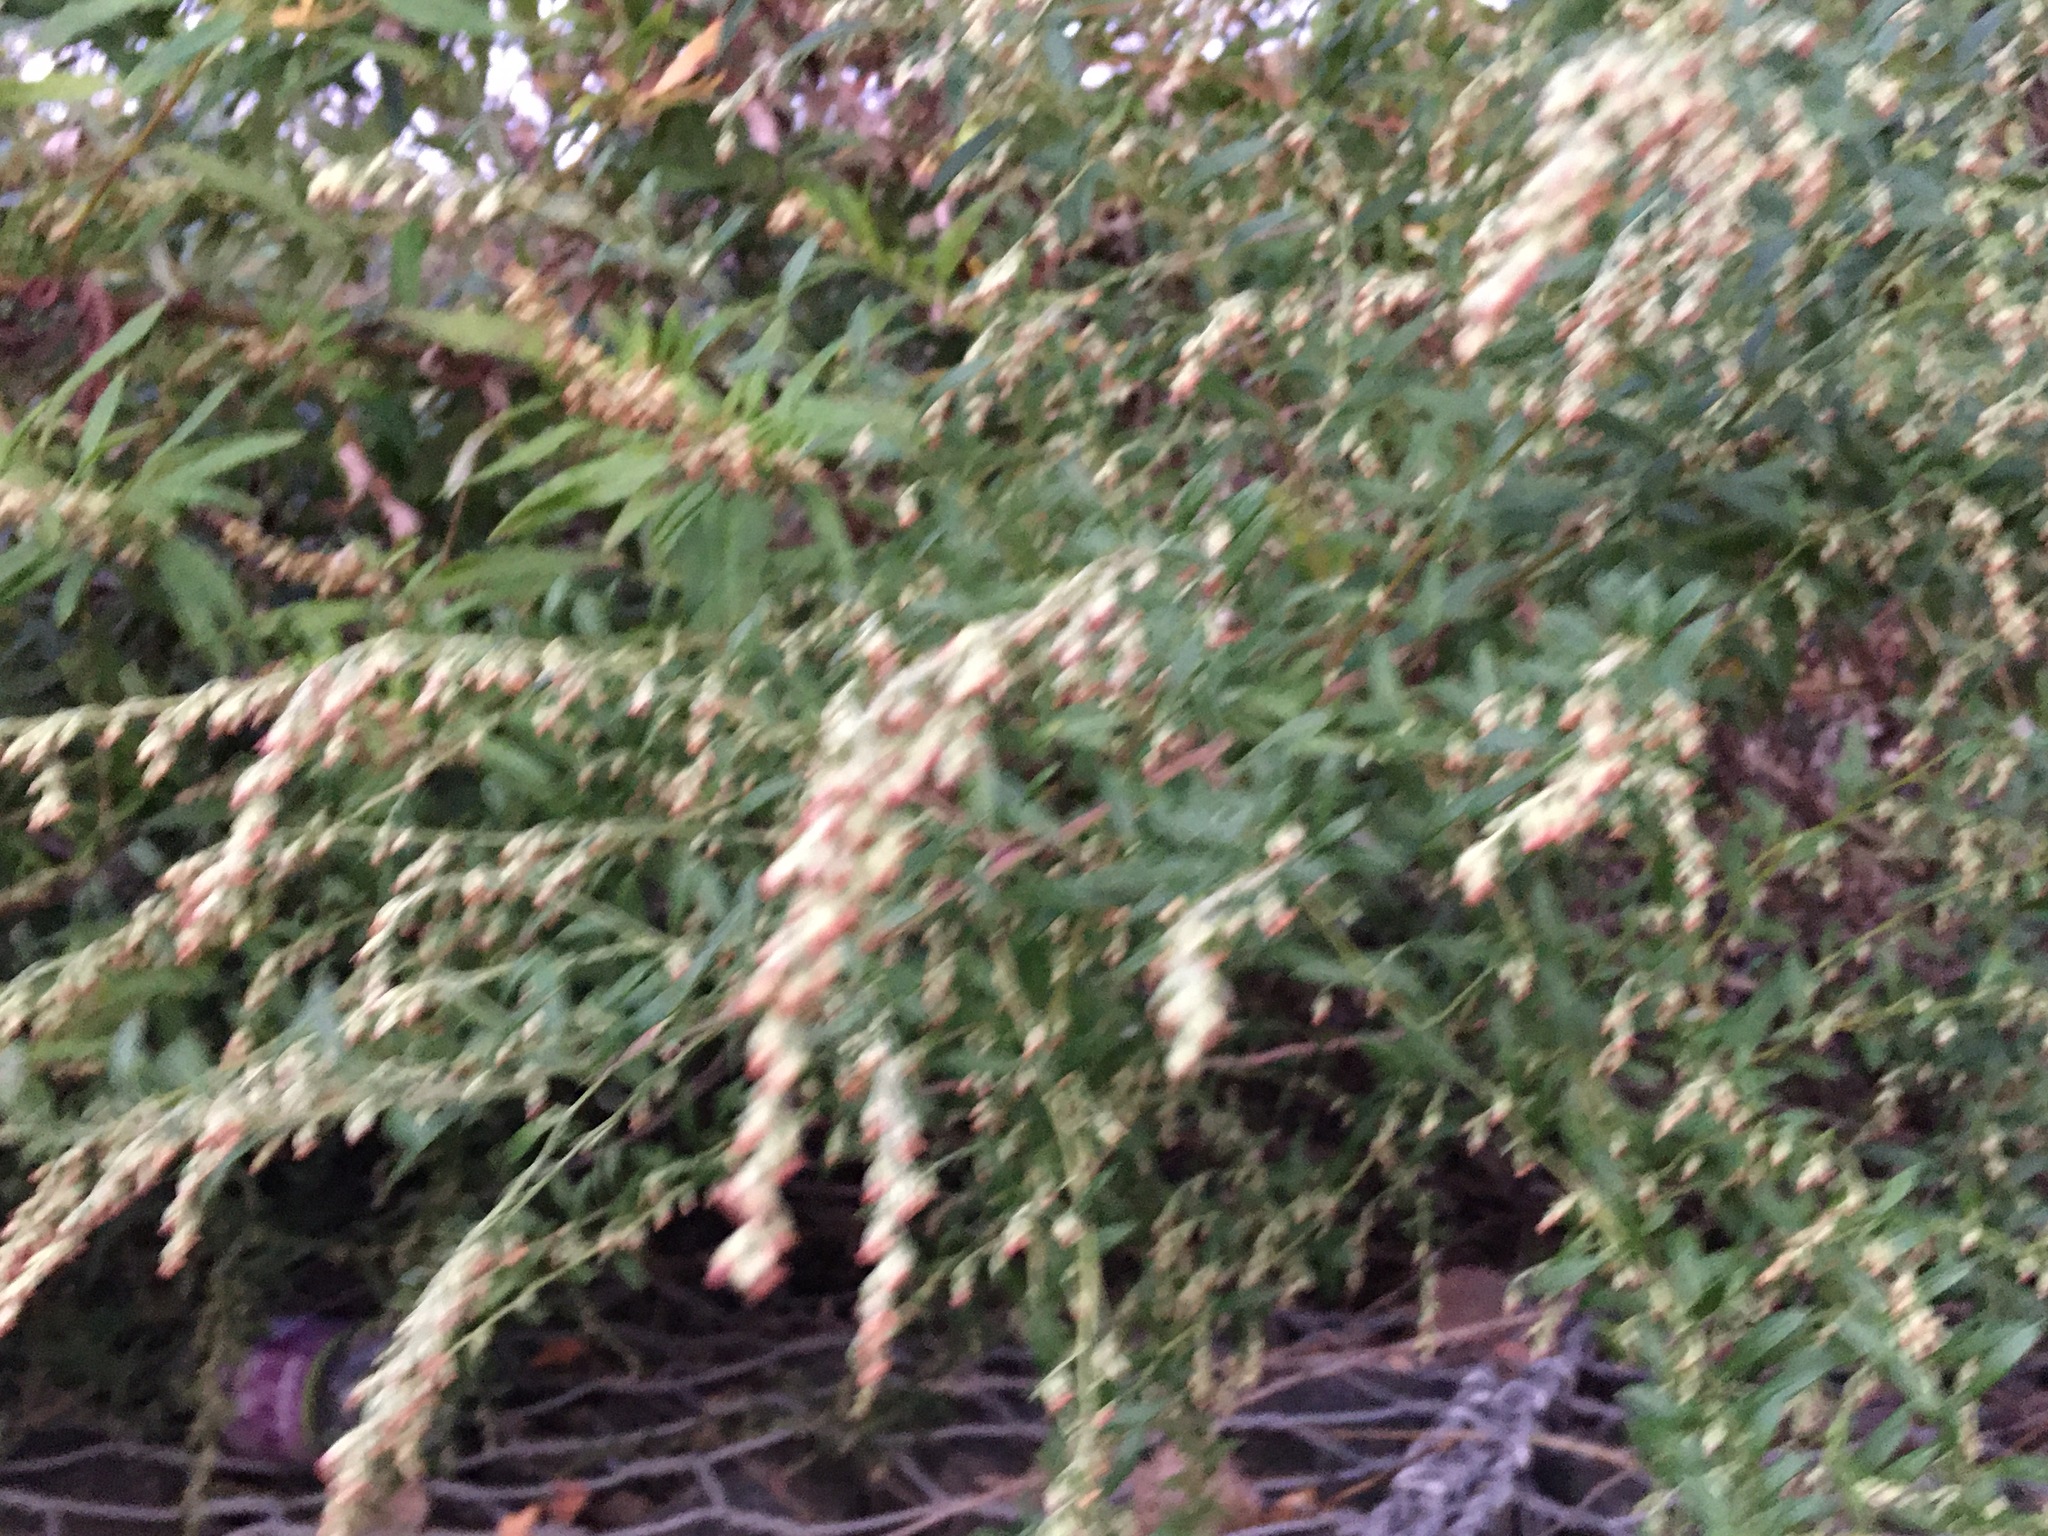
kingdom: Plantae
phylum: Tracheophyta
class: Magnoliopsida
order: Asterales
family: Asteraceae
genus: Artemisia
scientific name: Artemisia vulgaris
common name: Mugwort
